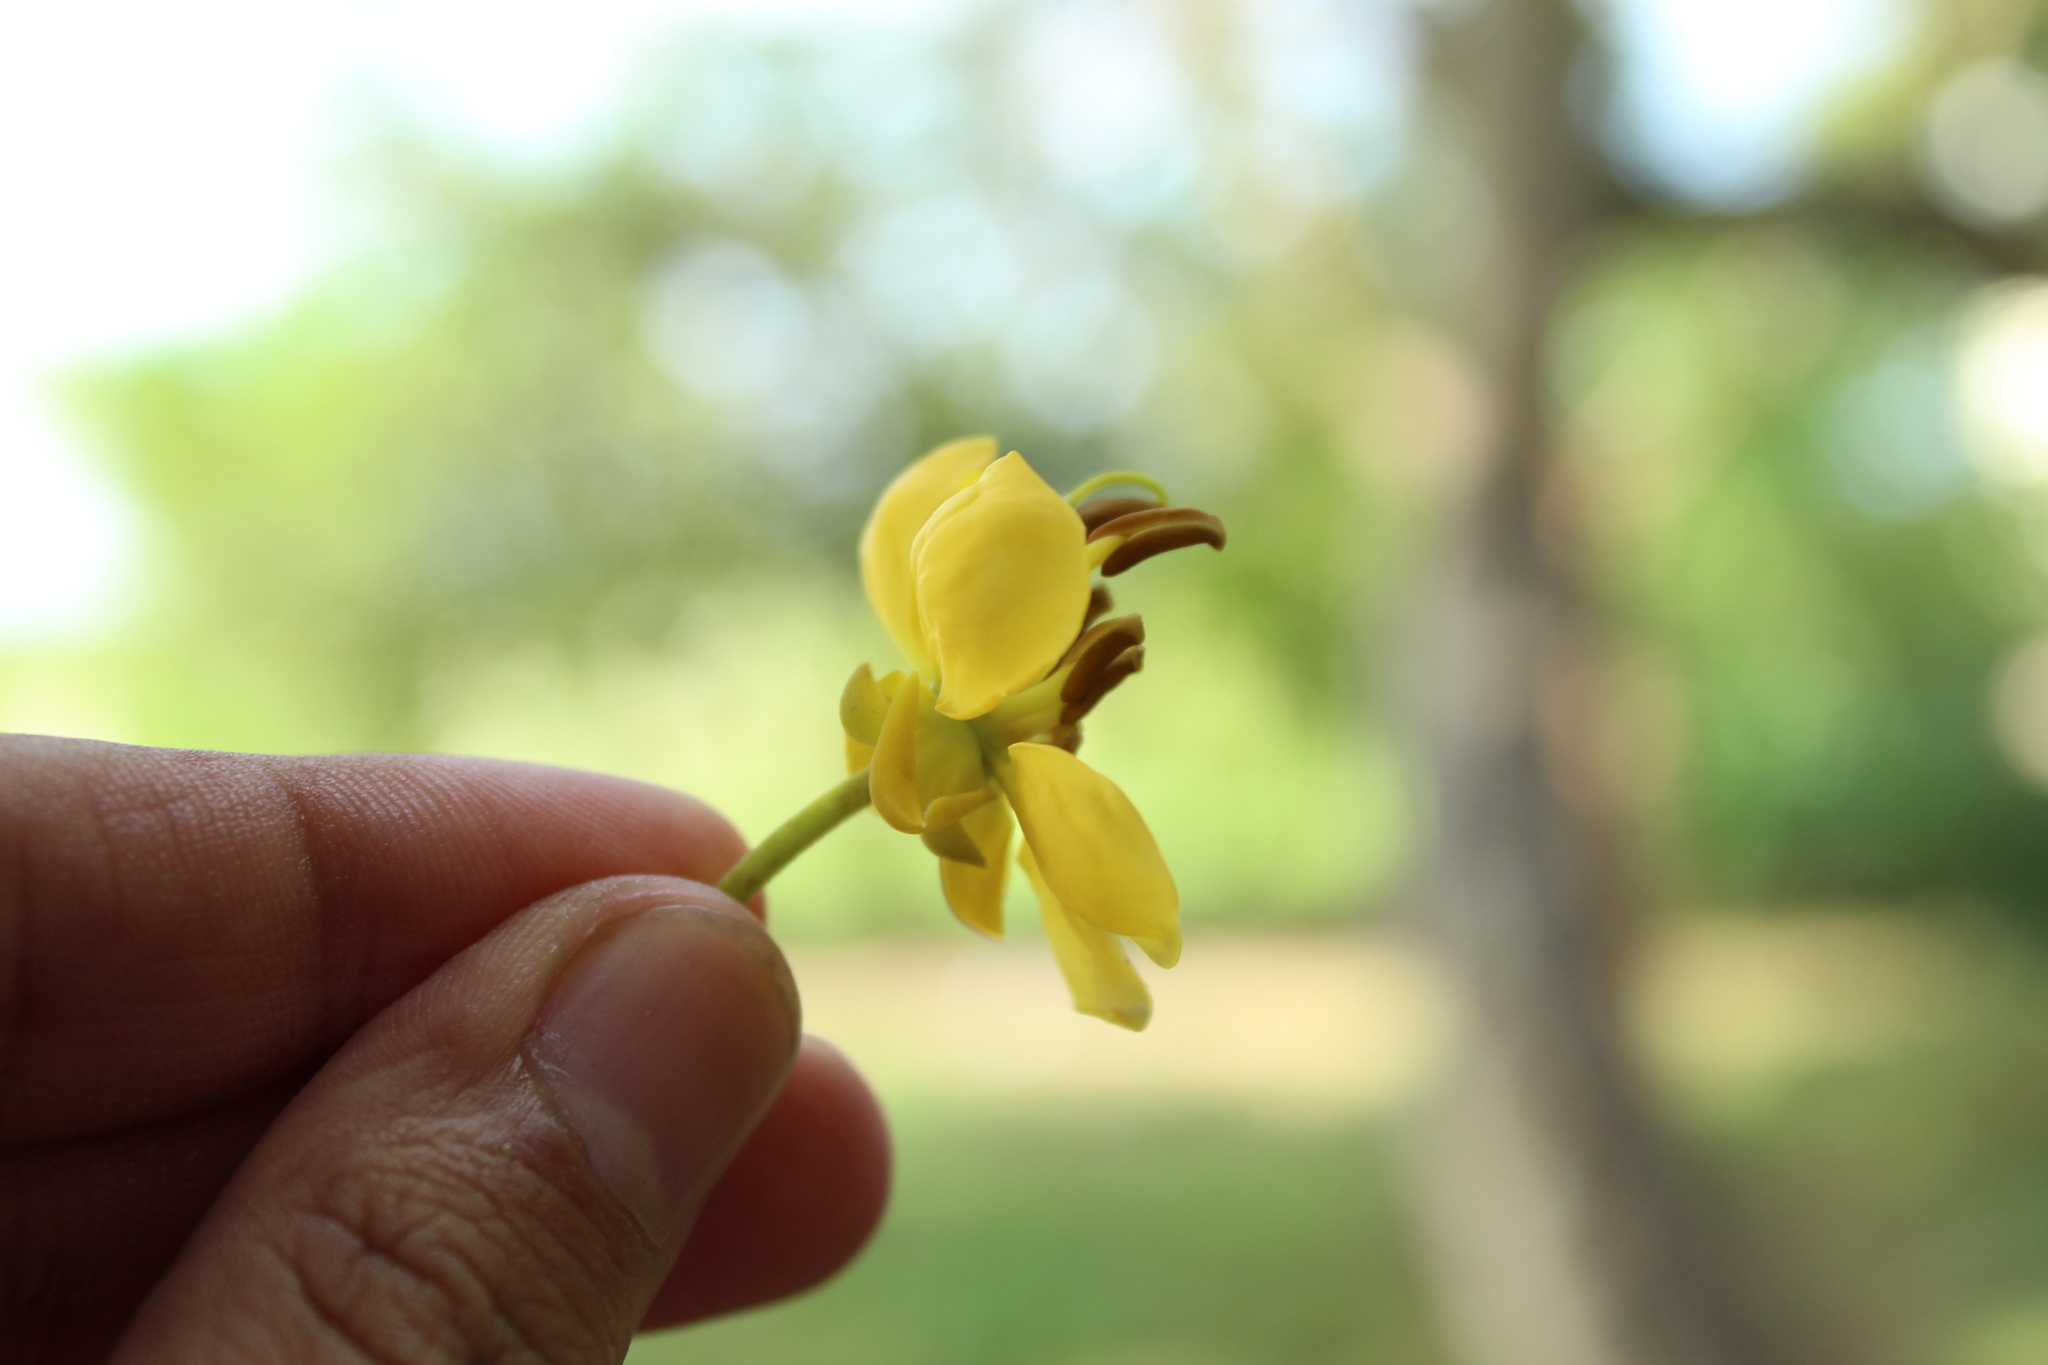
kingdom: Plantae
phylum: Tracheophyta
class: Magnoliopsida
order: Fabales
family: Fabaceae
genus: Senna
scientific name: Senna siamea
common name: Siamese cassia
